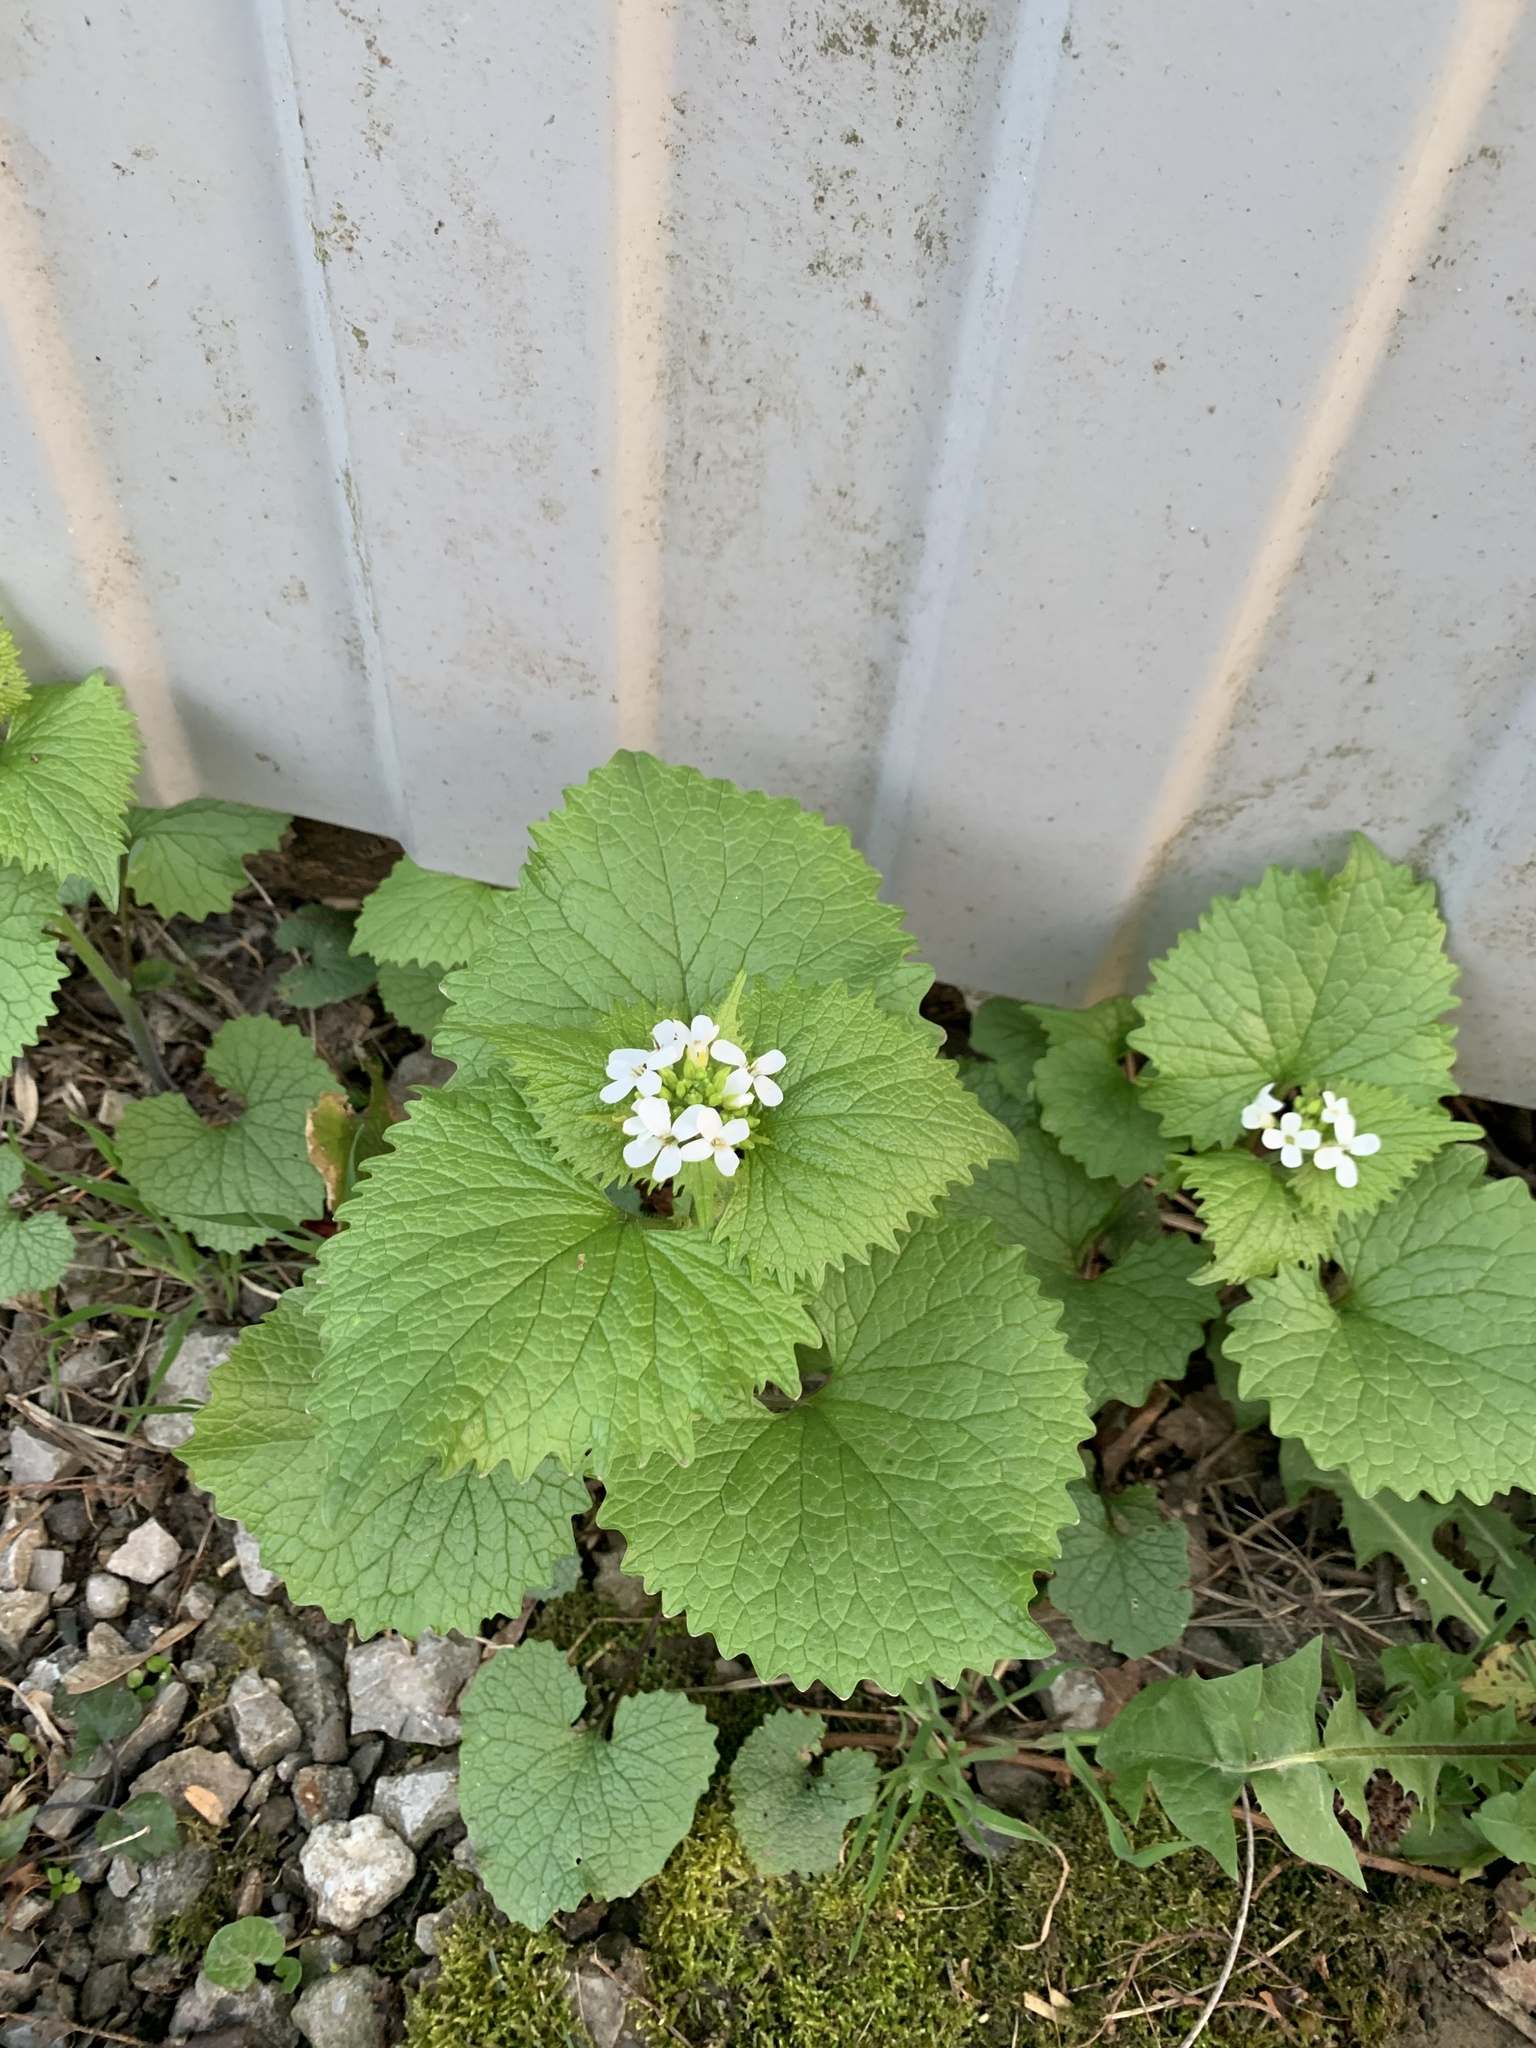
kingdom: Plantae
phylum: Tracheophyta
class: Magnoliopsida
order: Brassicales
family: Brassicaceae
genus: Alliaria
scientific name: Alliaria petiolata
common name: Garlic mustard
